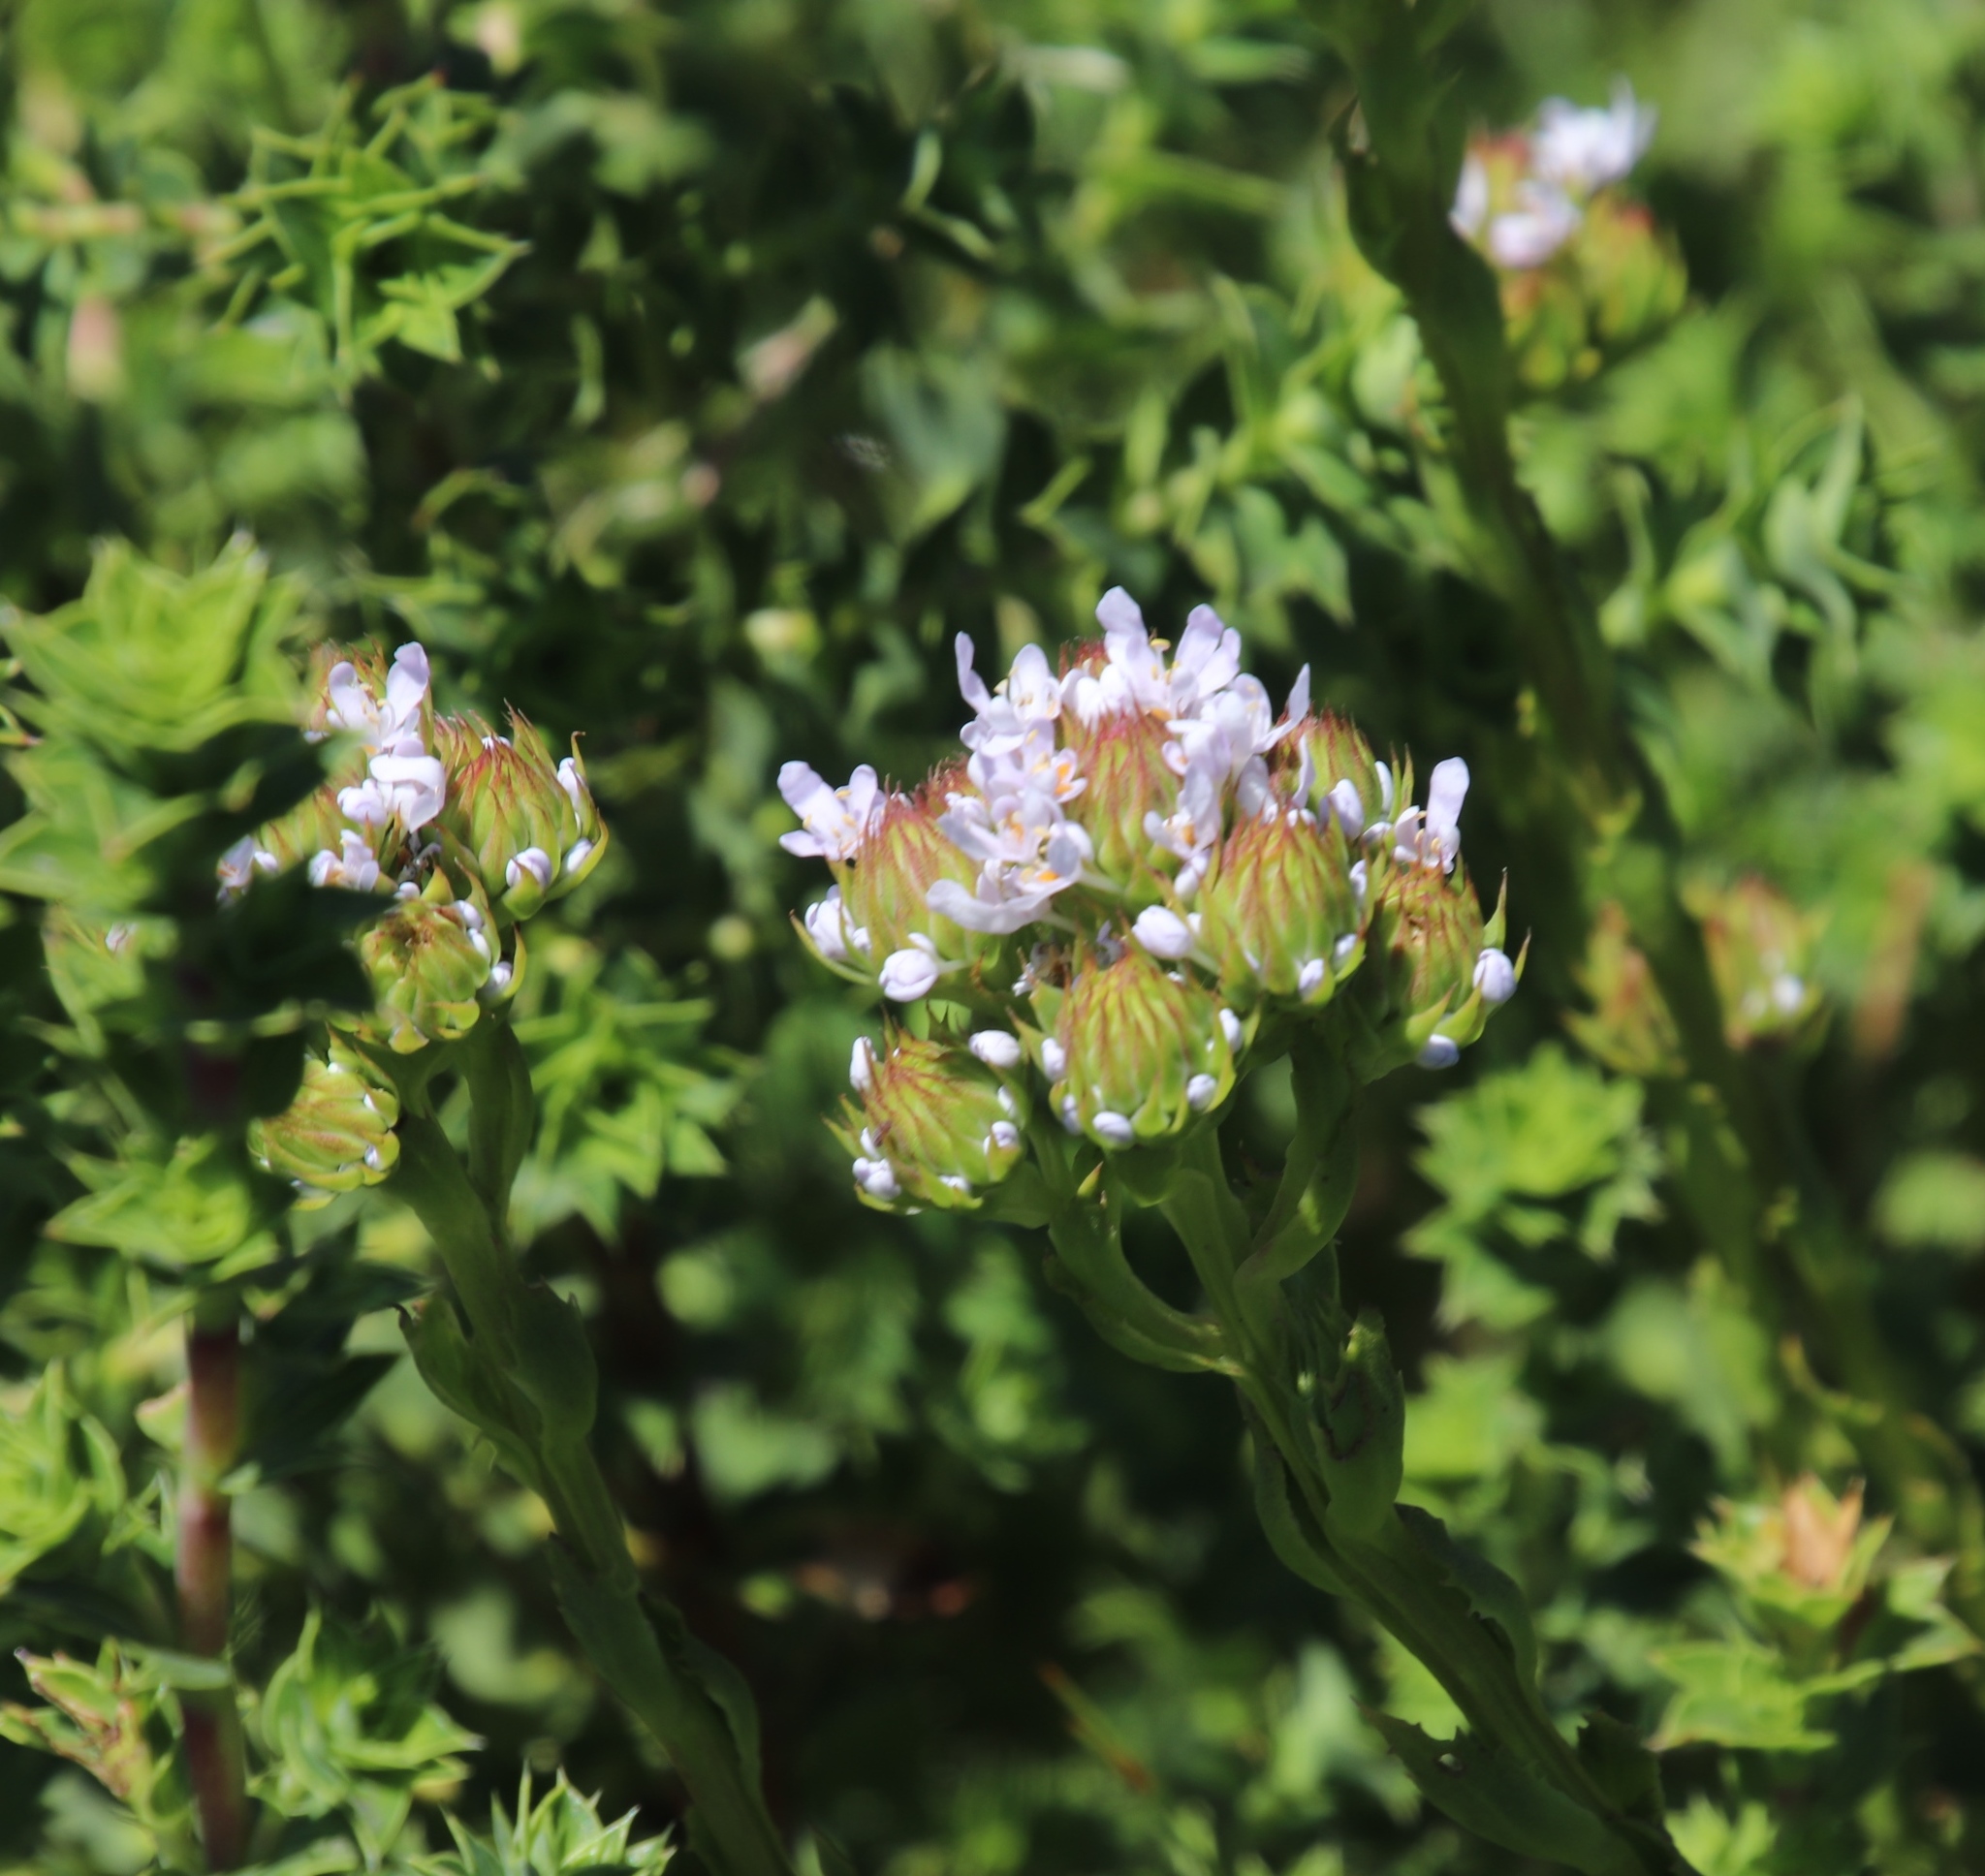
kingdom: Plantae
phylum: Tracheophyta
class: Magnoliopsida
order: Lamiales
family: Scrophulariaceae
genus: Pseudoselago
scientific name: Pseudoselago spuria
